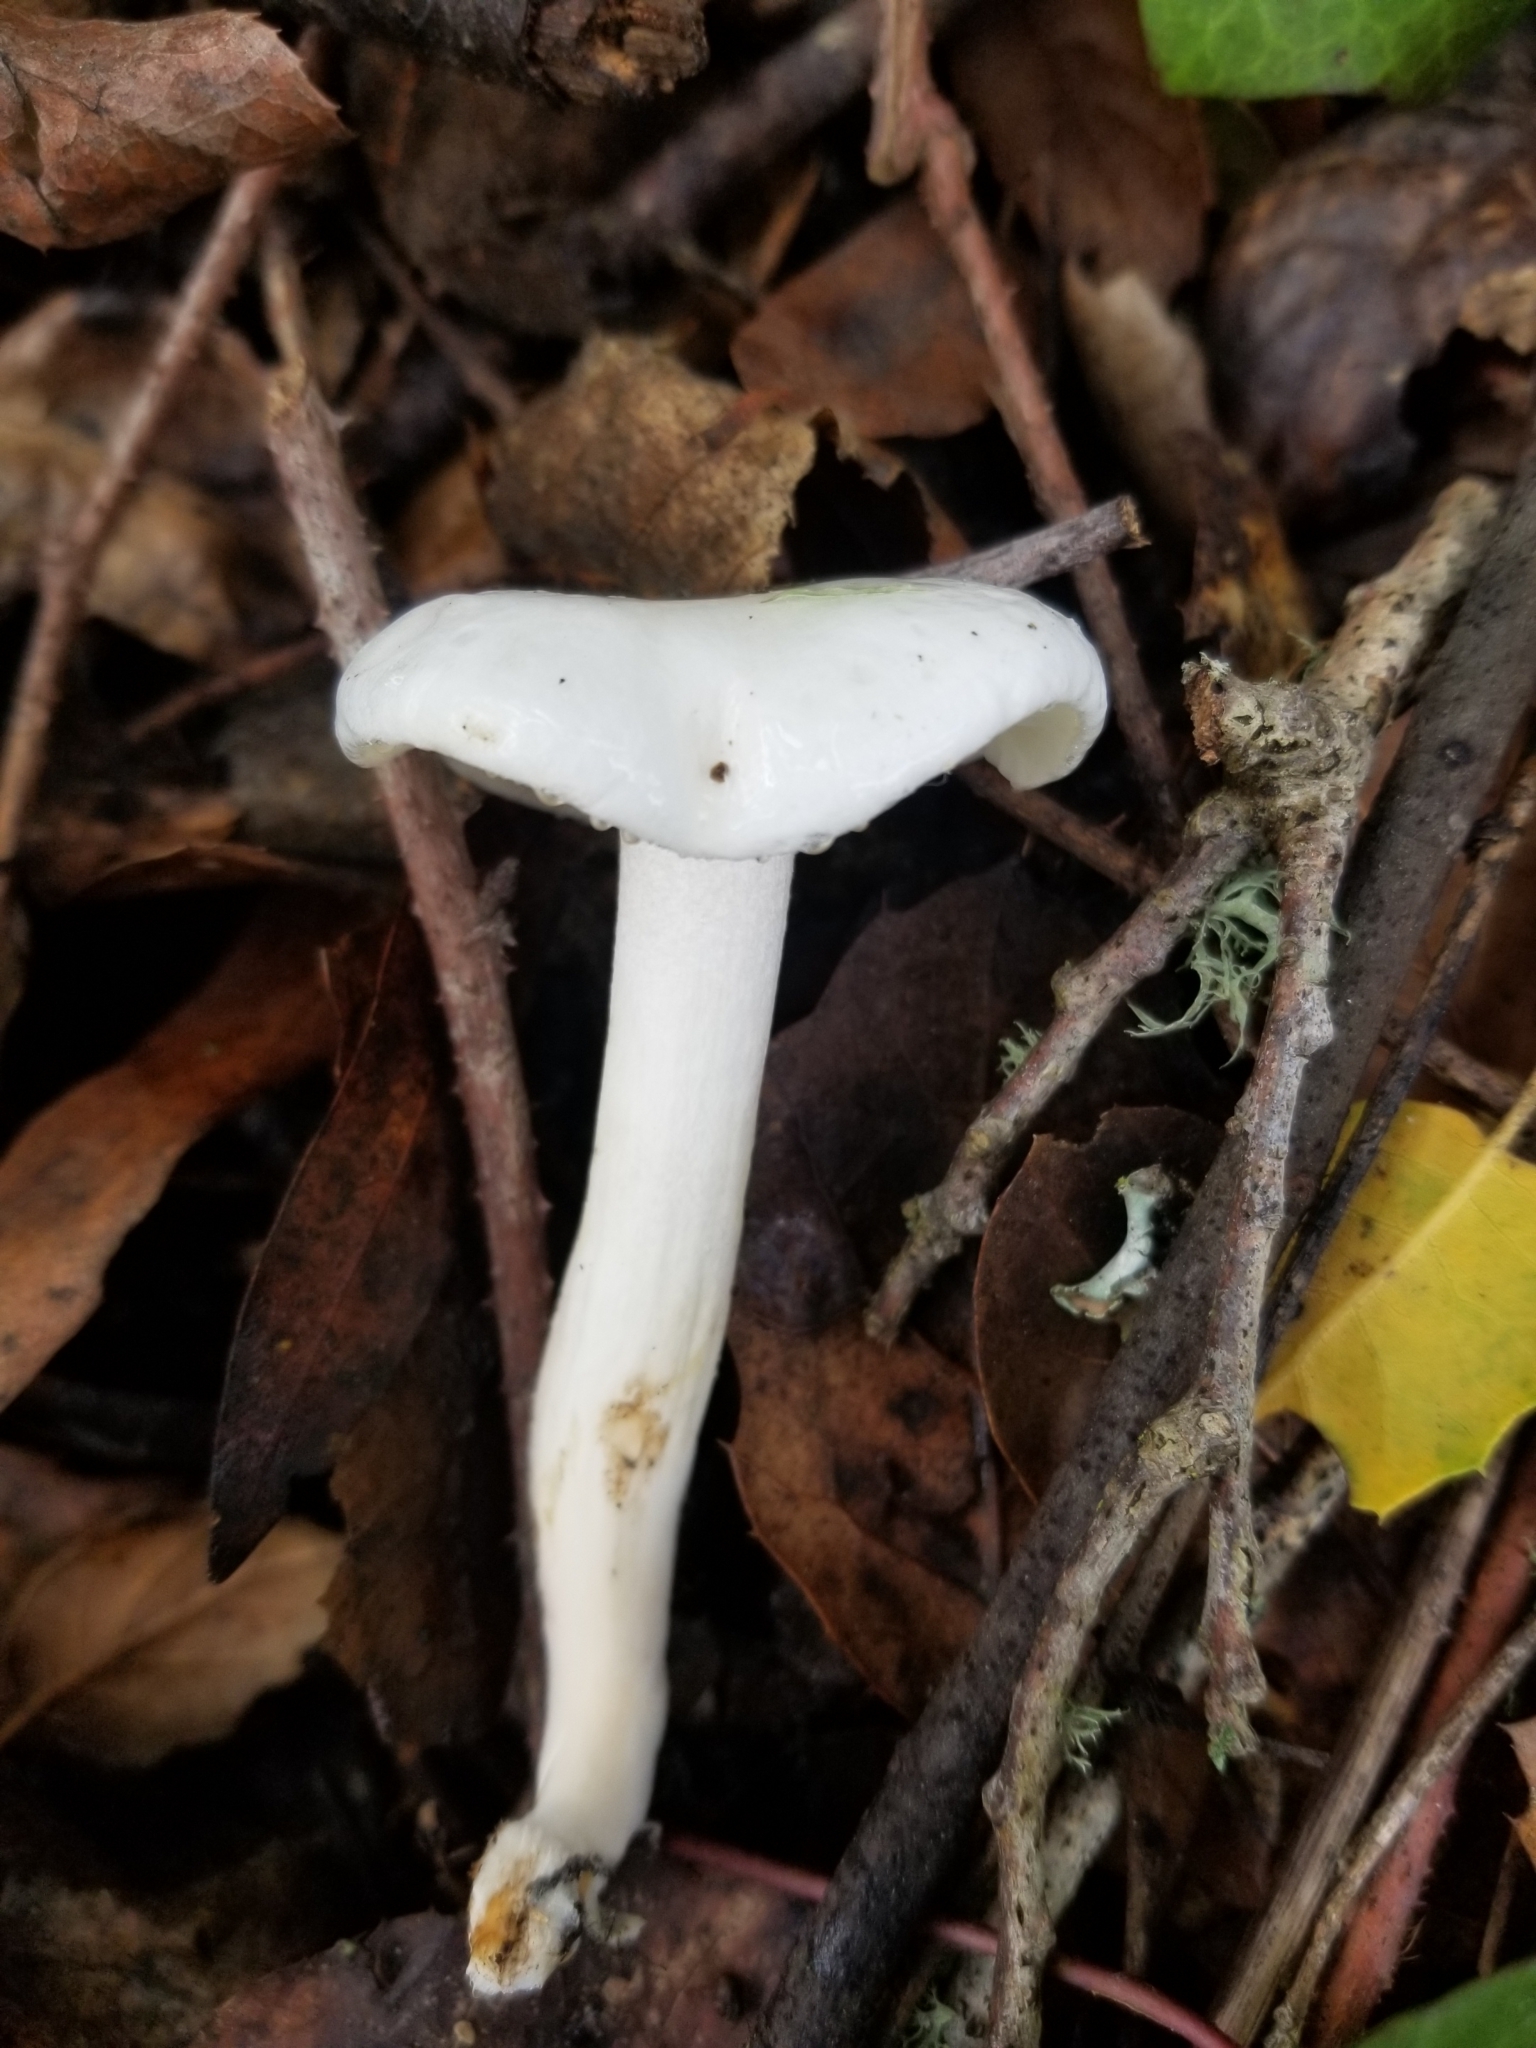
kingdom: Fungi
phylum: Basidiomycota
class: Agaricomycetes
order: Agaricales
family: Hygrophoraceae
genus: Hygrophorus
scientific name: Hygrophorus eburneus
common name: Ivory wax-cap
